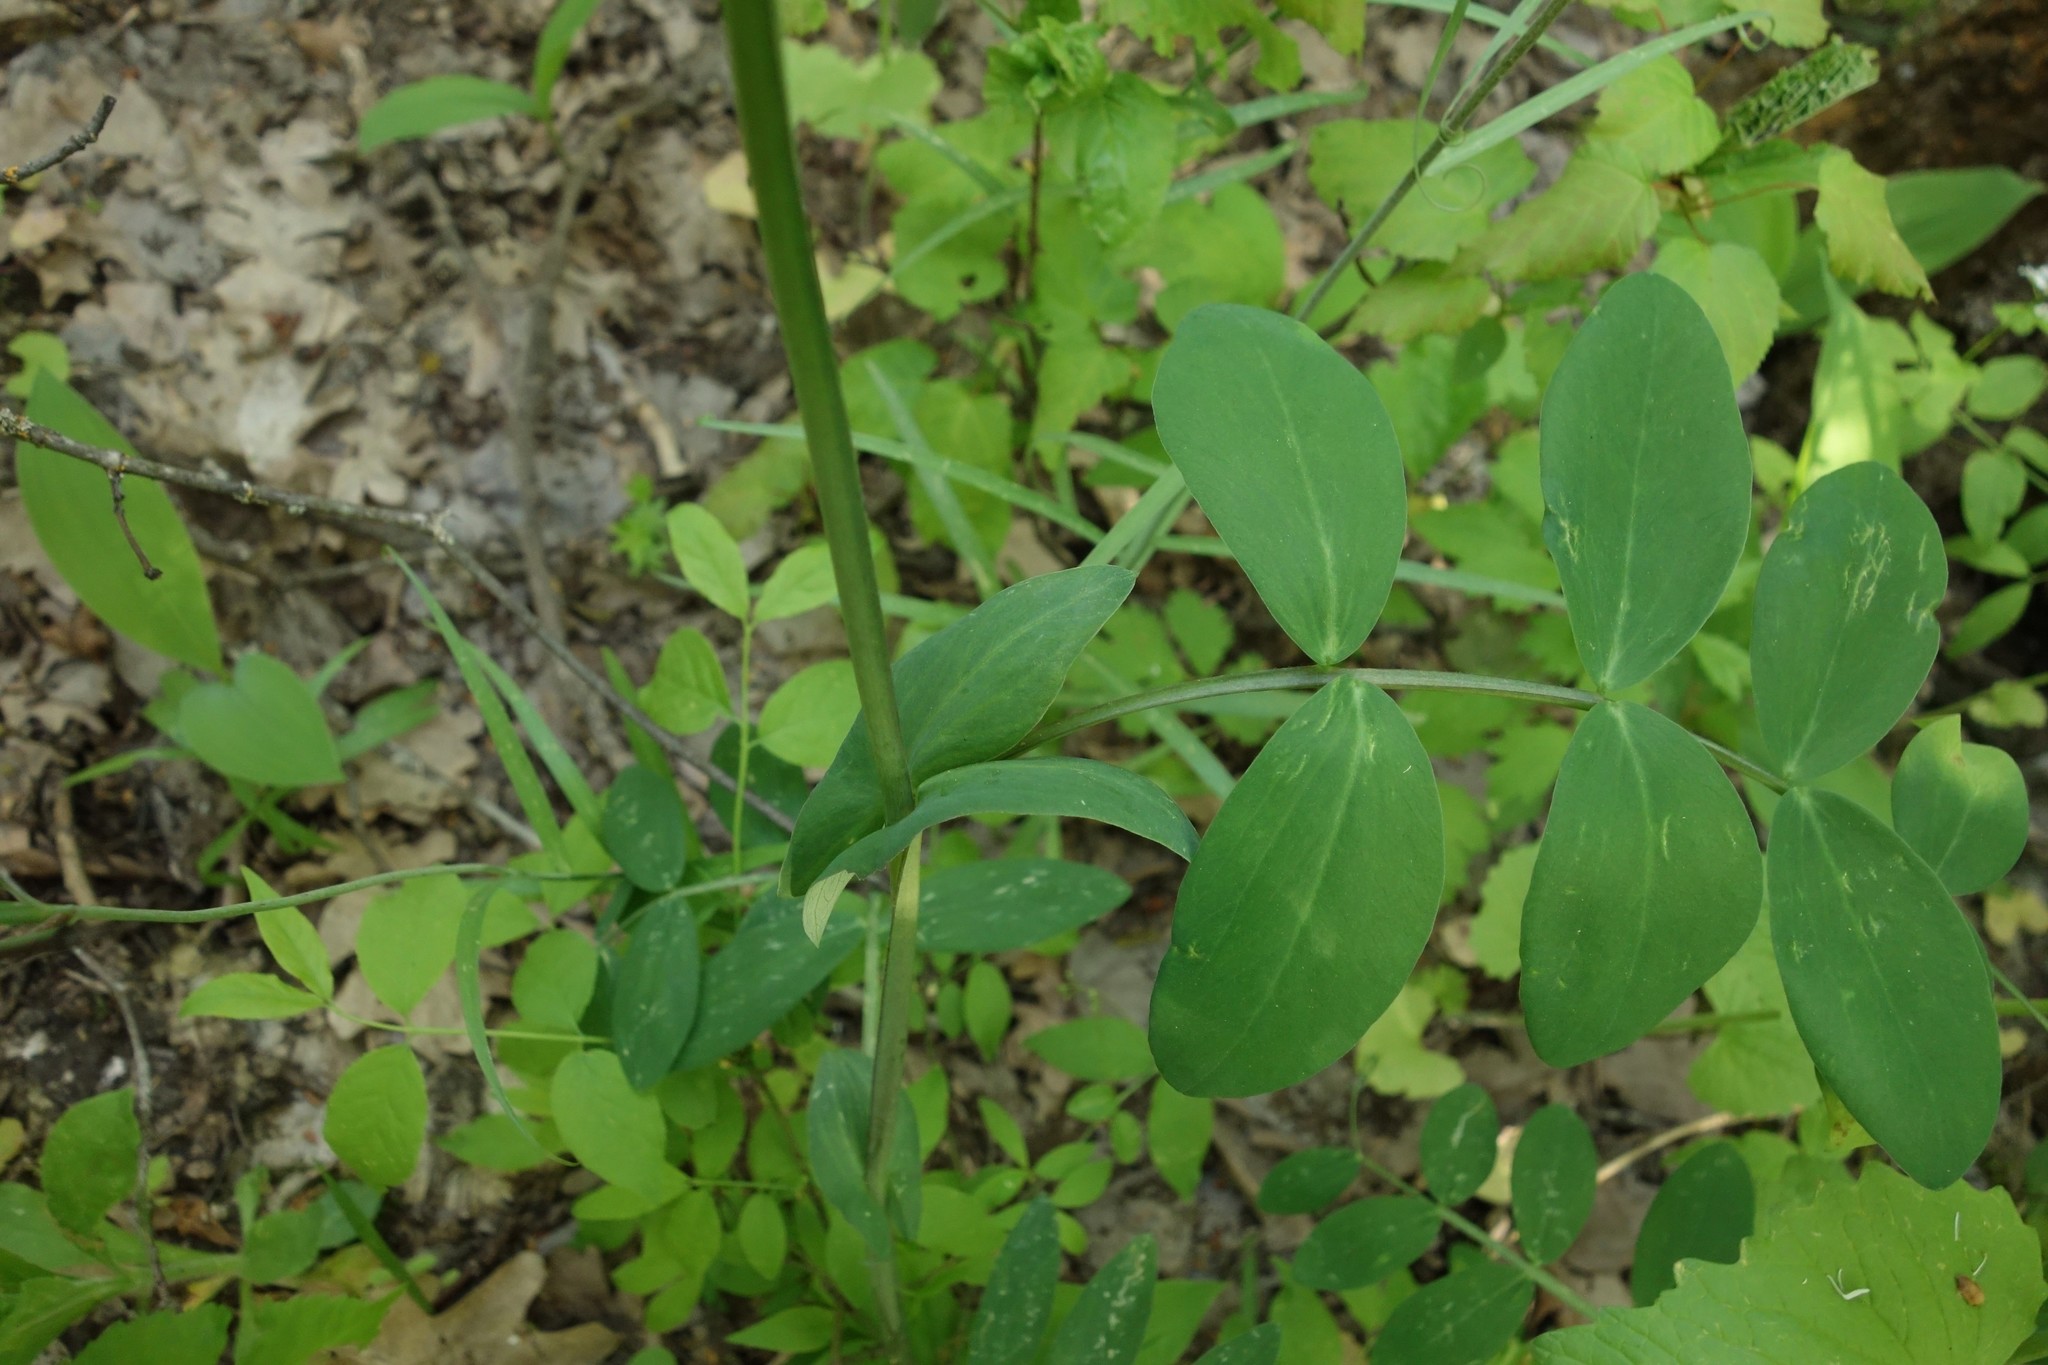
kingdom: Plantae
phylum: Tracheophyta
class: Magnoliopsida
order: Fabales
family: Fabaceae
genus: Lathyrus
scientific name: Lathyrus pisiformis
